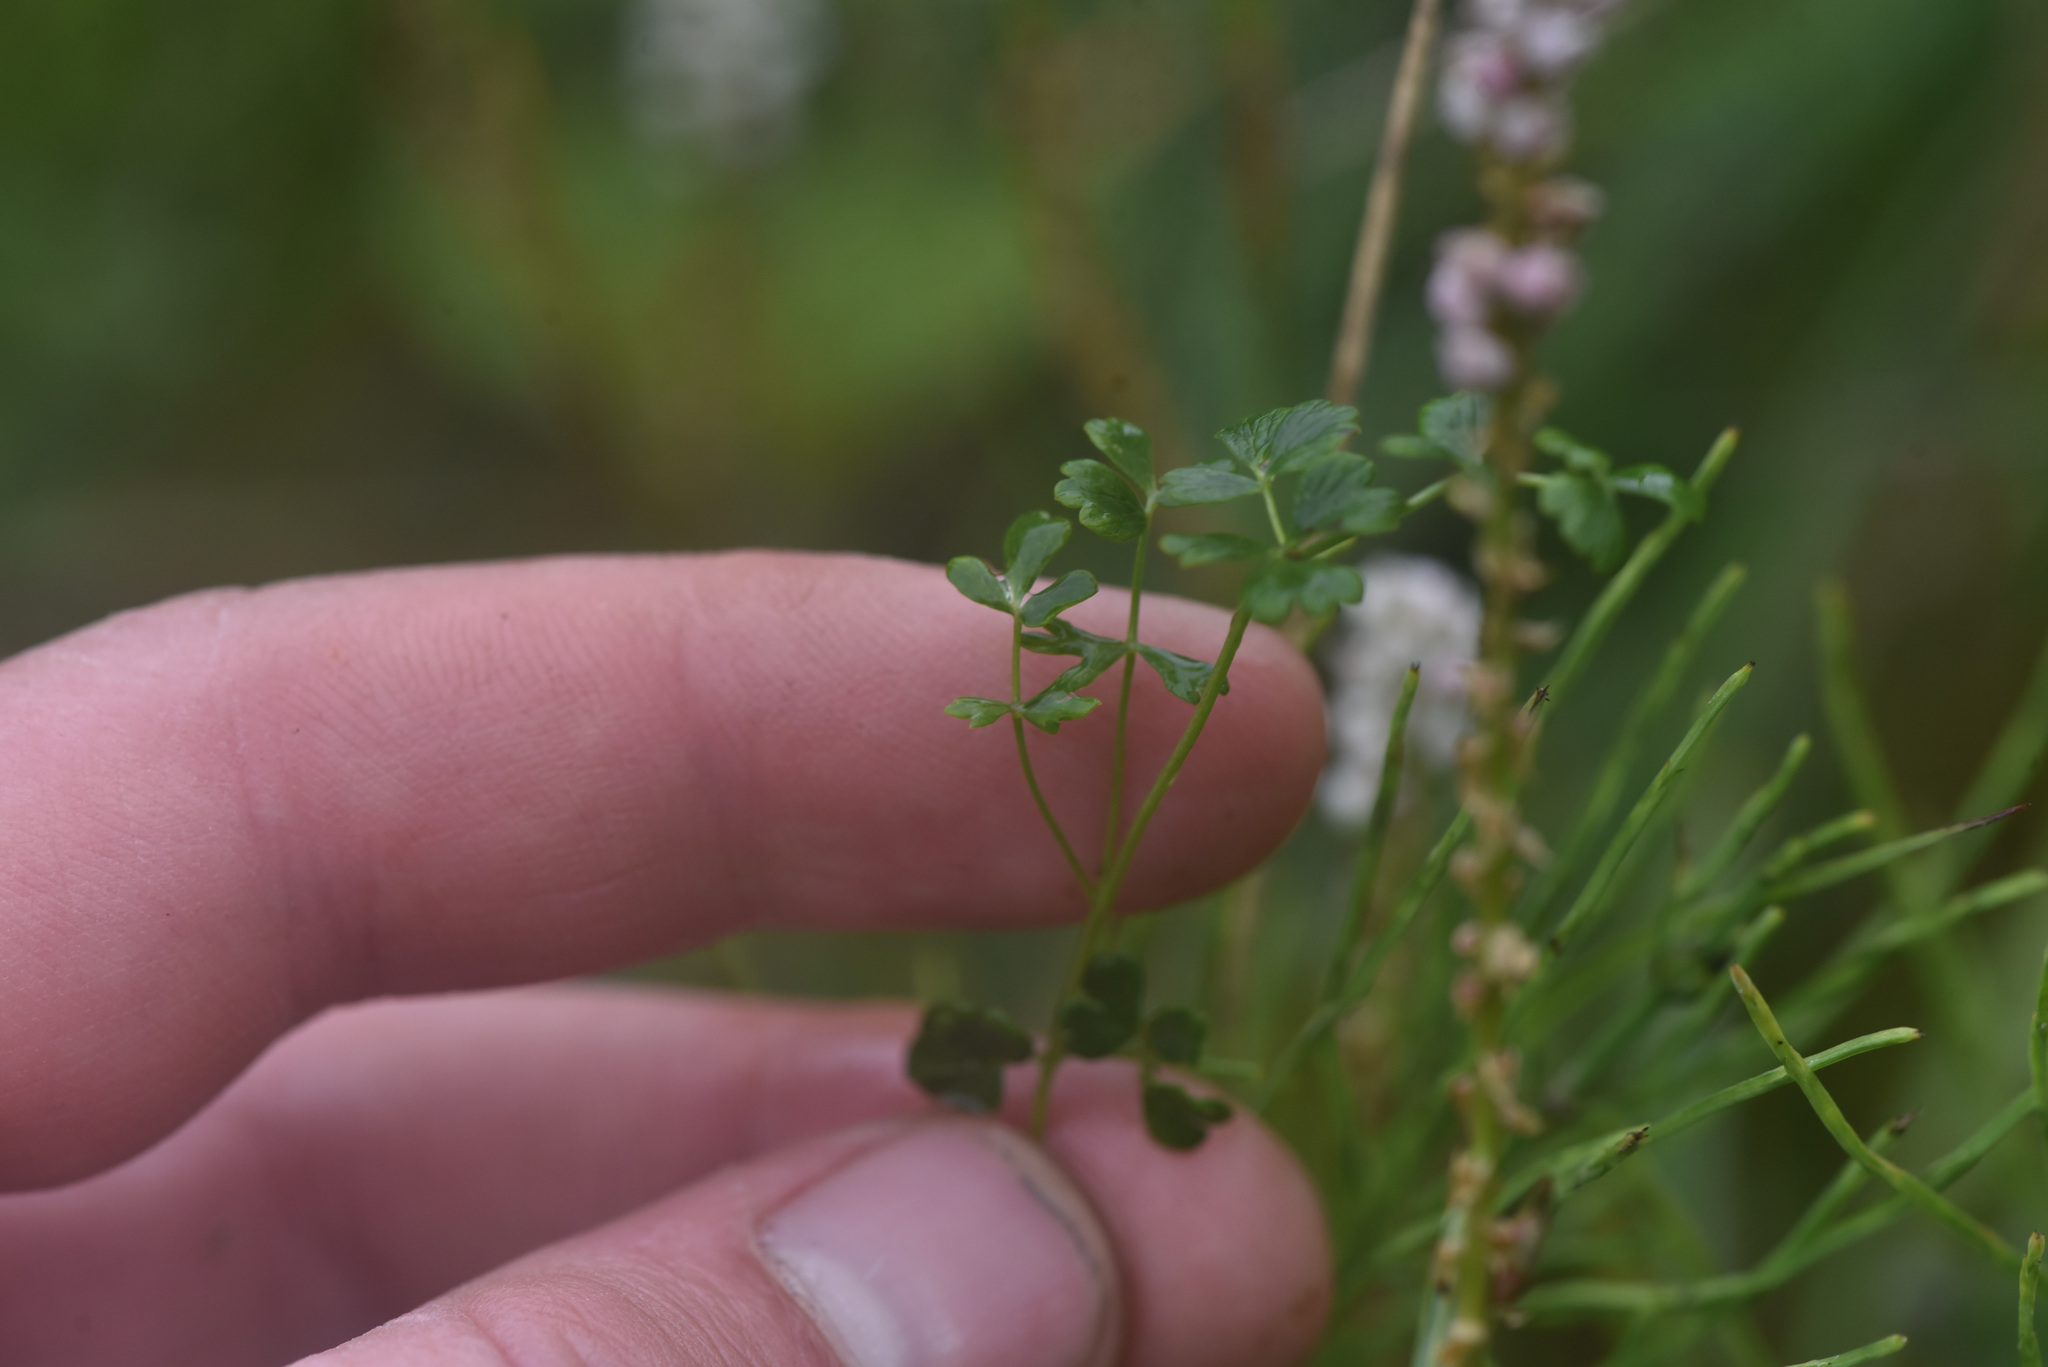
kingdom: Plantae
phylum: Tracheophyta
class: Magnoliopsida
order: Ranunculales
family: Ranunculaceae
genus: Thalictrum
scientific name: Thalictrum alpinum
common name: Alpine meadow-rue
